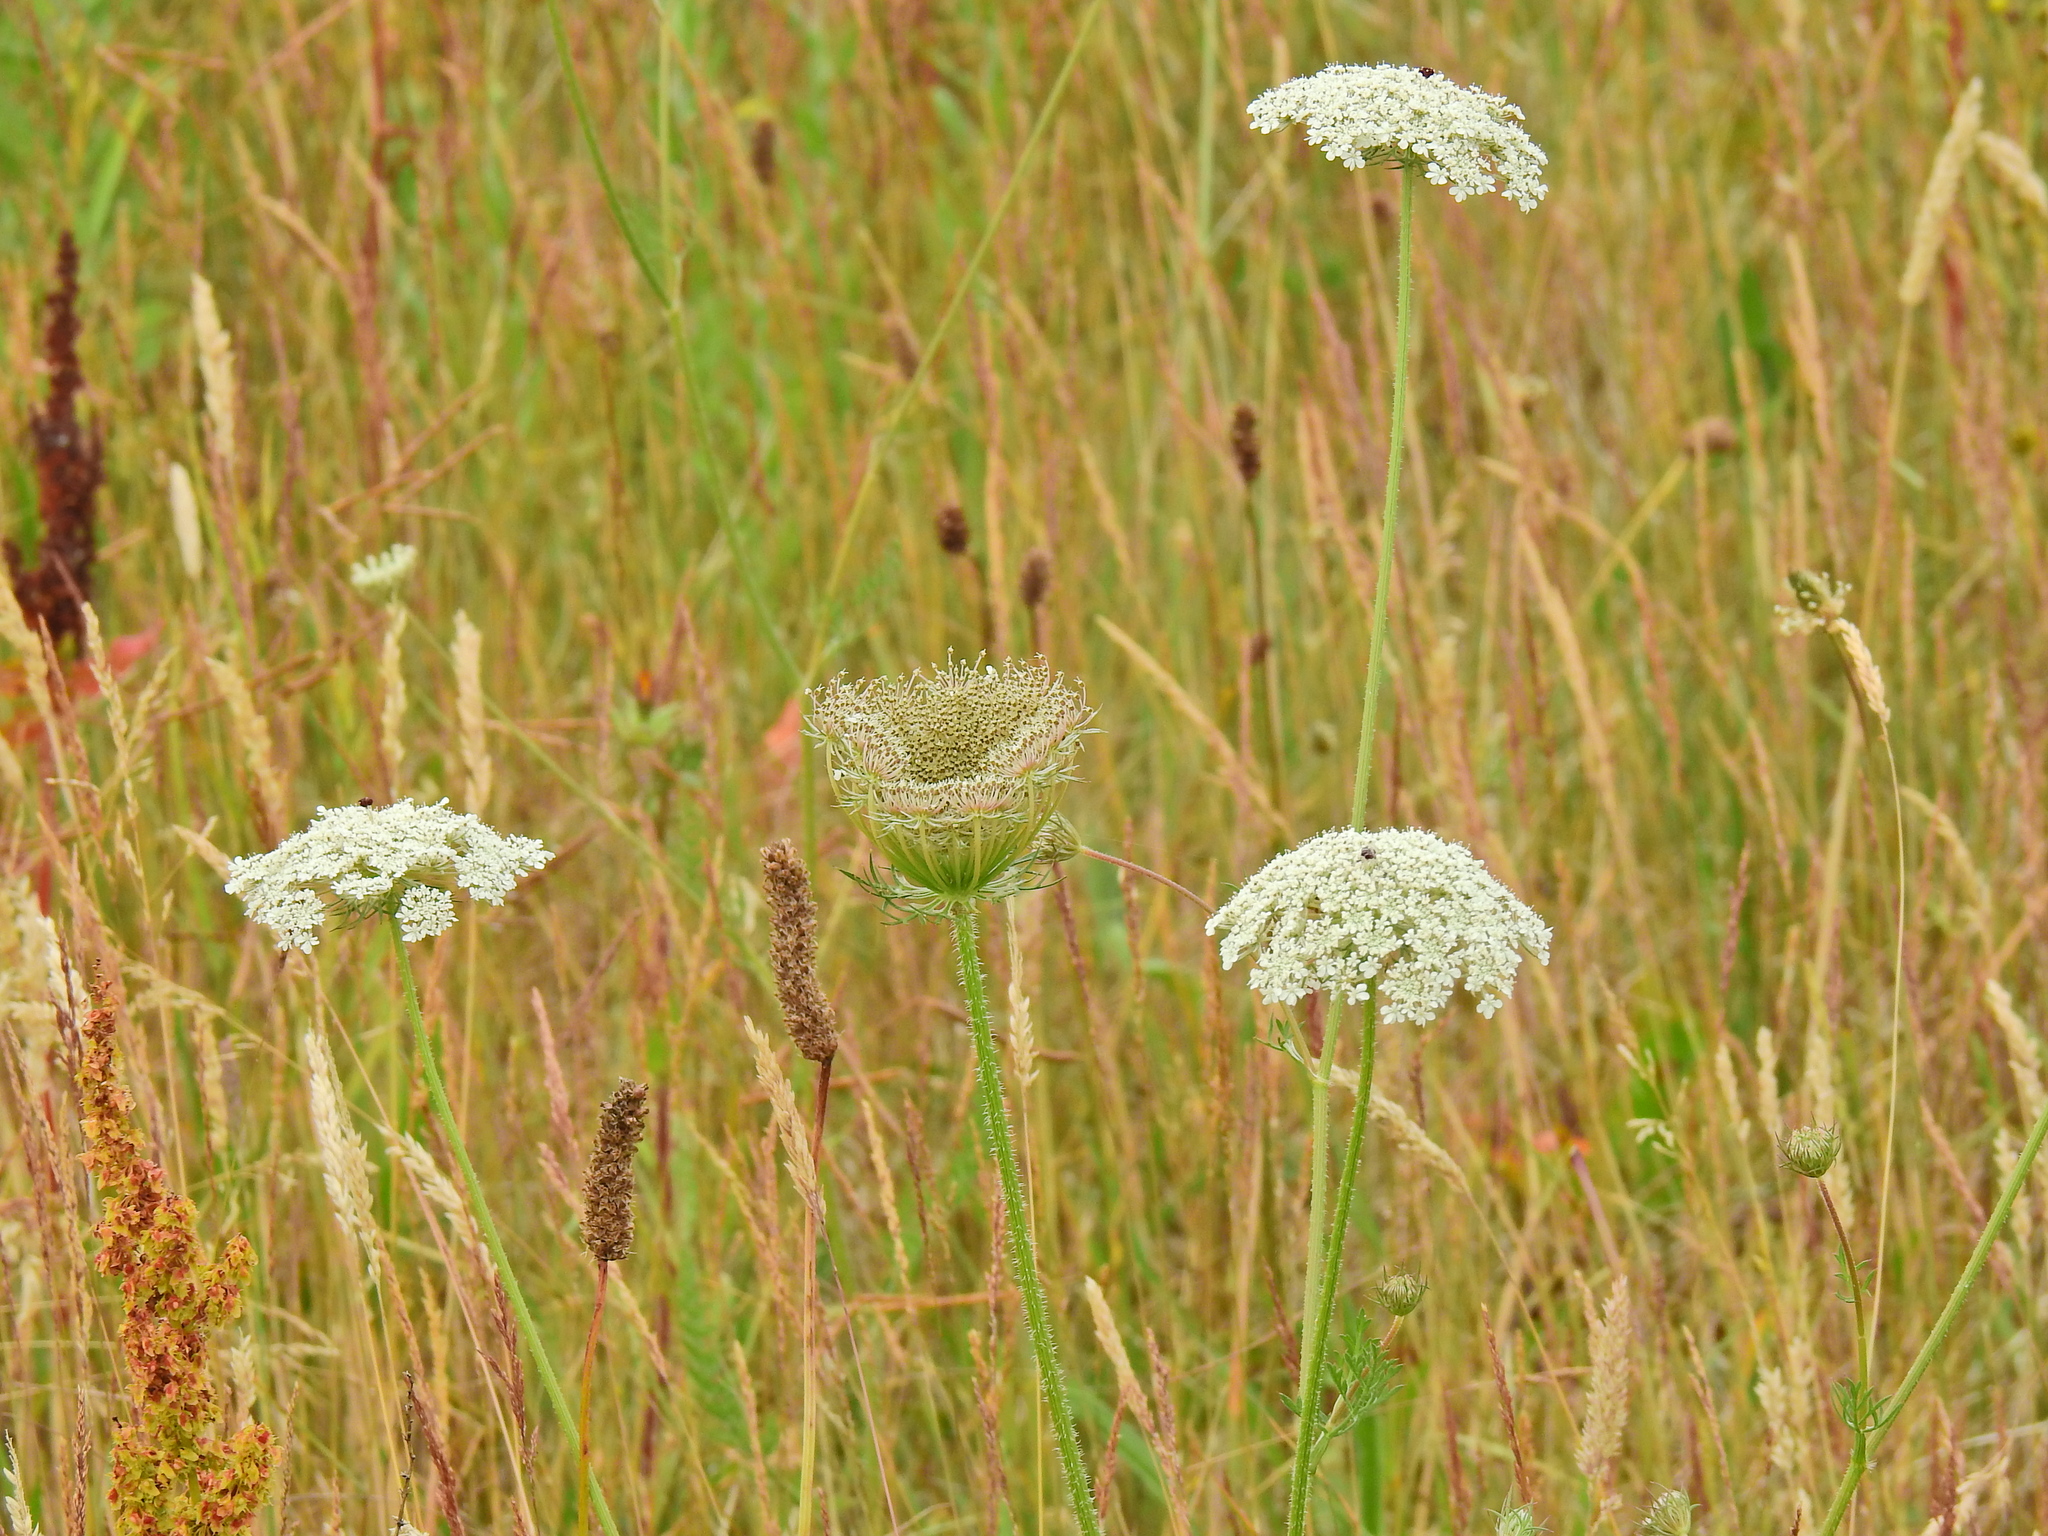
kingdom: Plantae
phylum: Tracheophyta
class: Magnoliopsida
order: Apiales
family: Apiaceae
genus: Daucus
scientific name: Daucus carota
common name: Wild carrot
